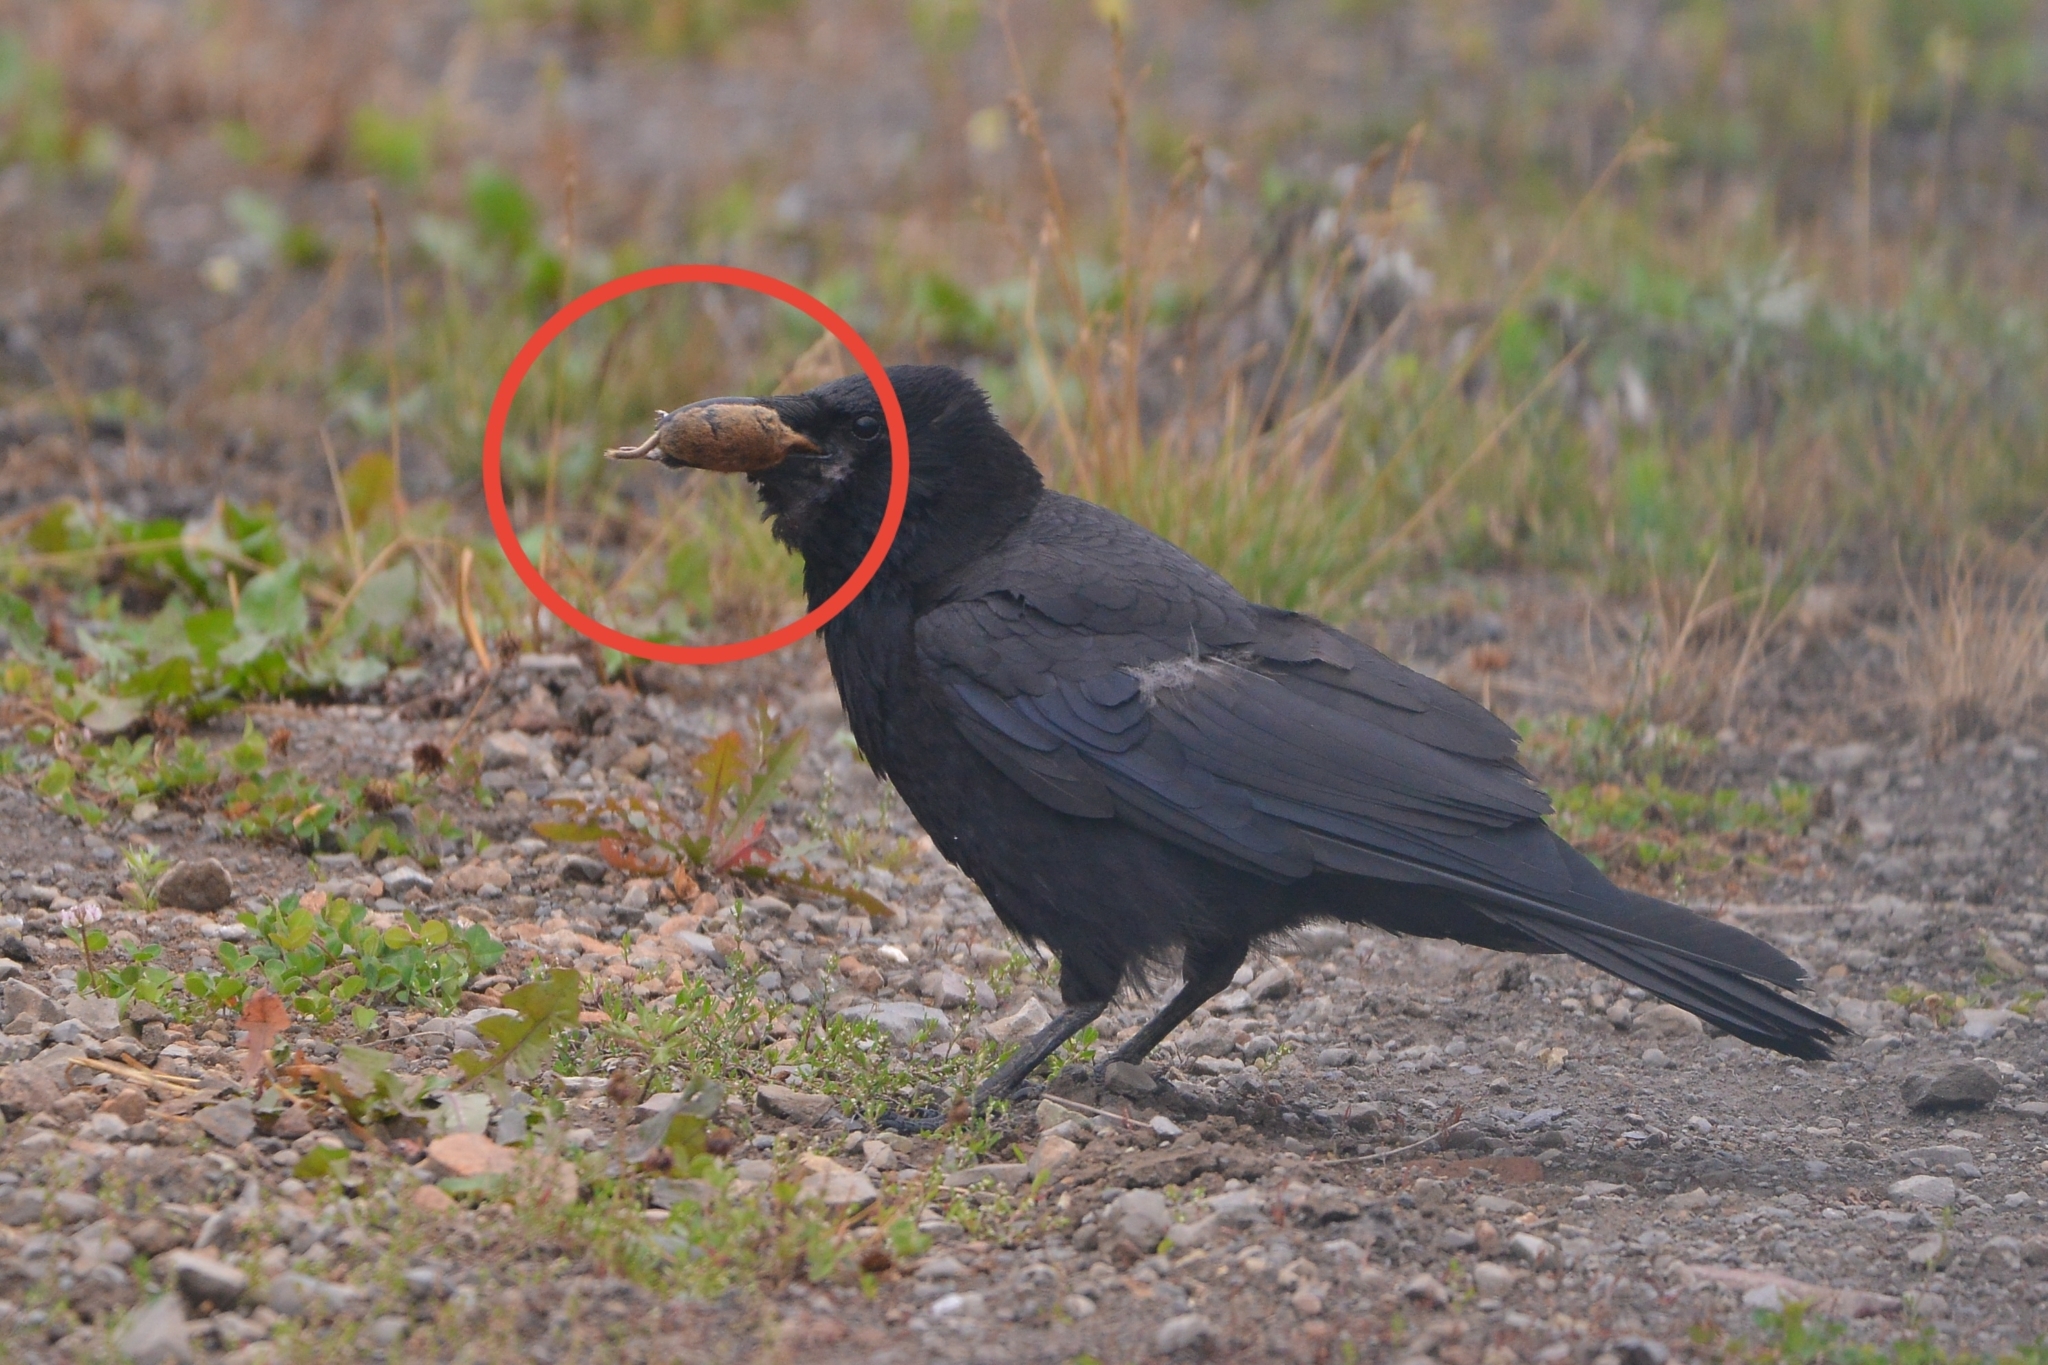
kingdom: Animalia
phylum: Chordata
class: Mammalia
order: Rodentia
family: Cricetidae
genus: Myodes
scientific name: Myodes rufocanus
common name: Gray red-backed vole
